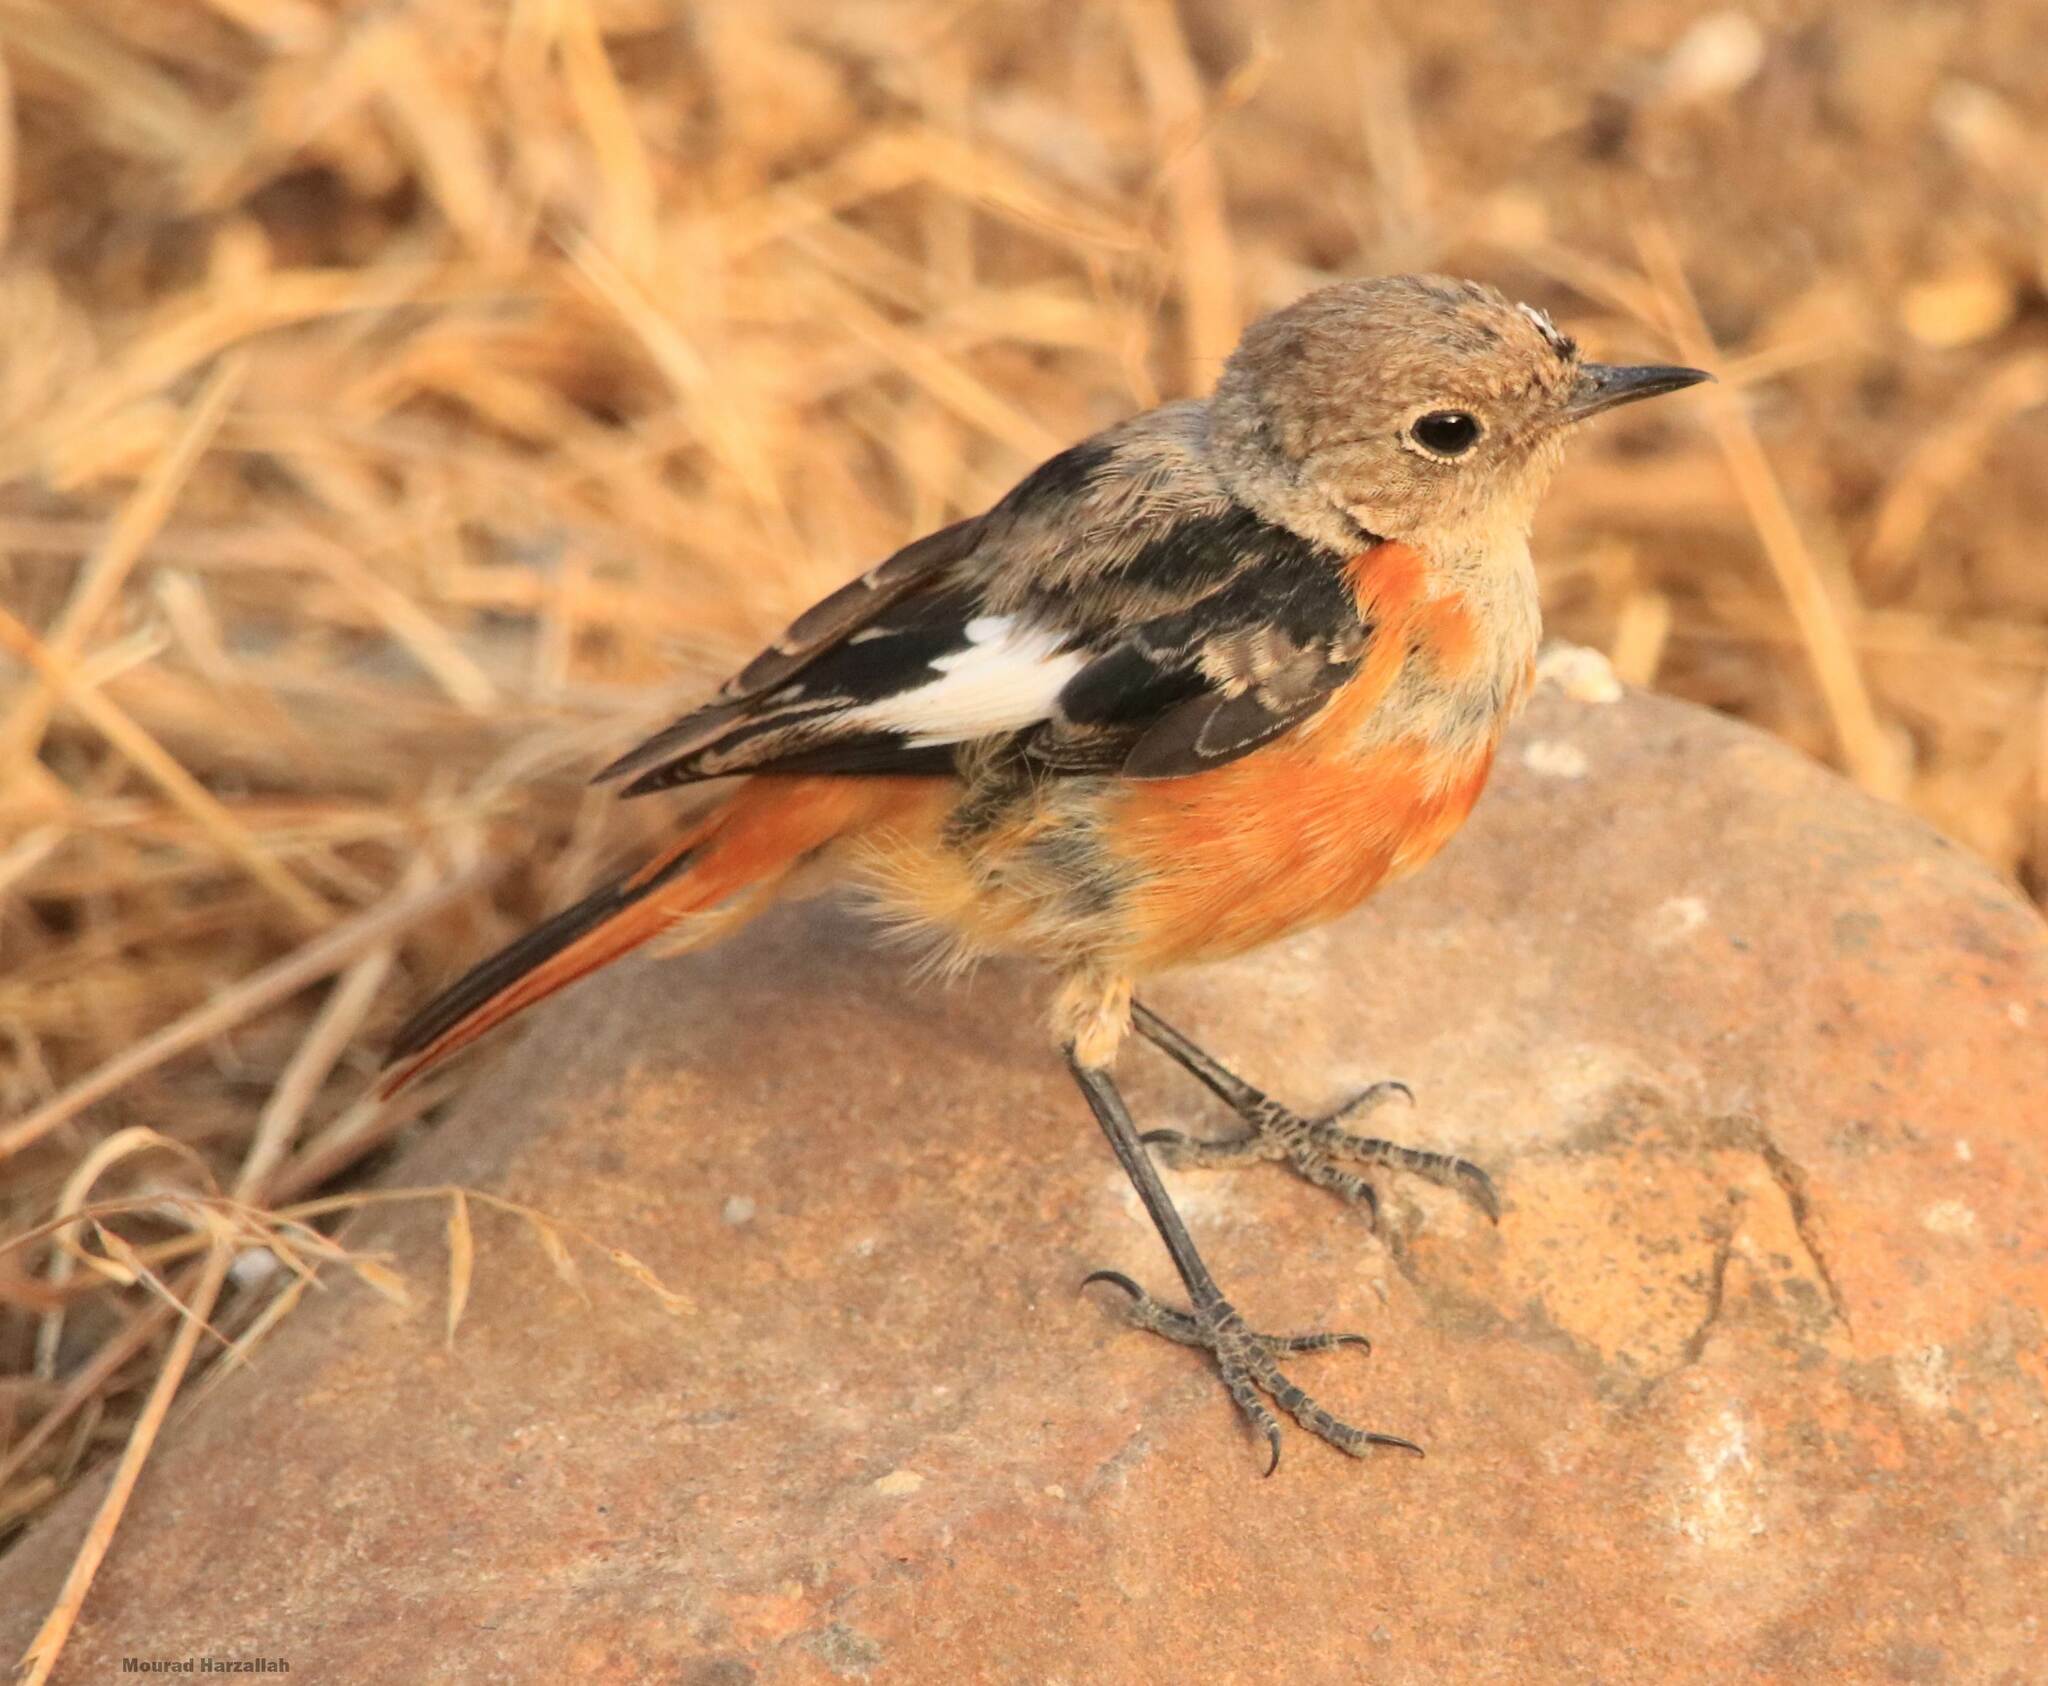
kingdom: Animalia
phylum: Chordata
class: Aves
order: Passeriformes
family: Muscicapidae
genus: Phoenicurus
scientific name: Phoenicurus moussieri
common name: Moussier's redstart
